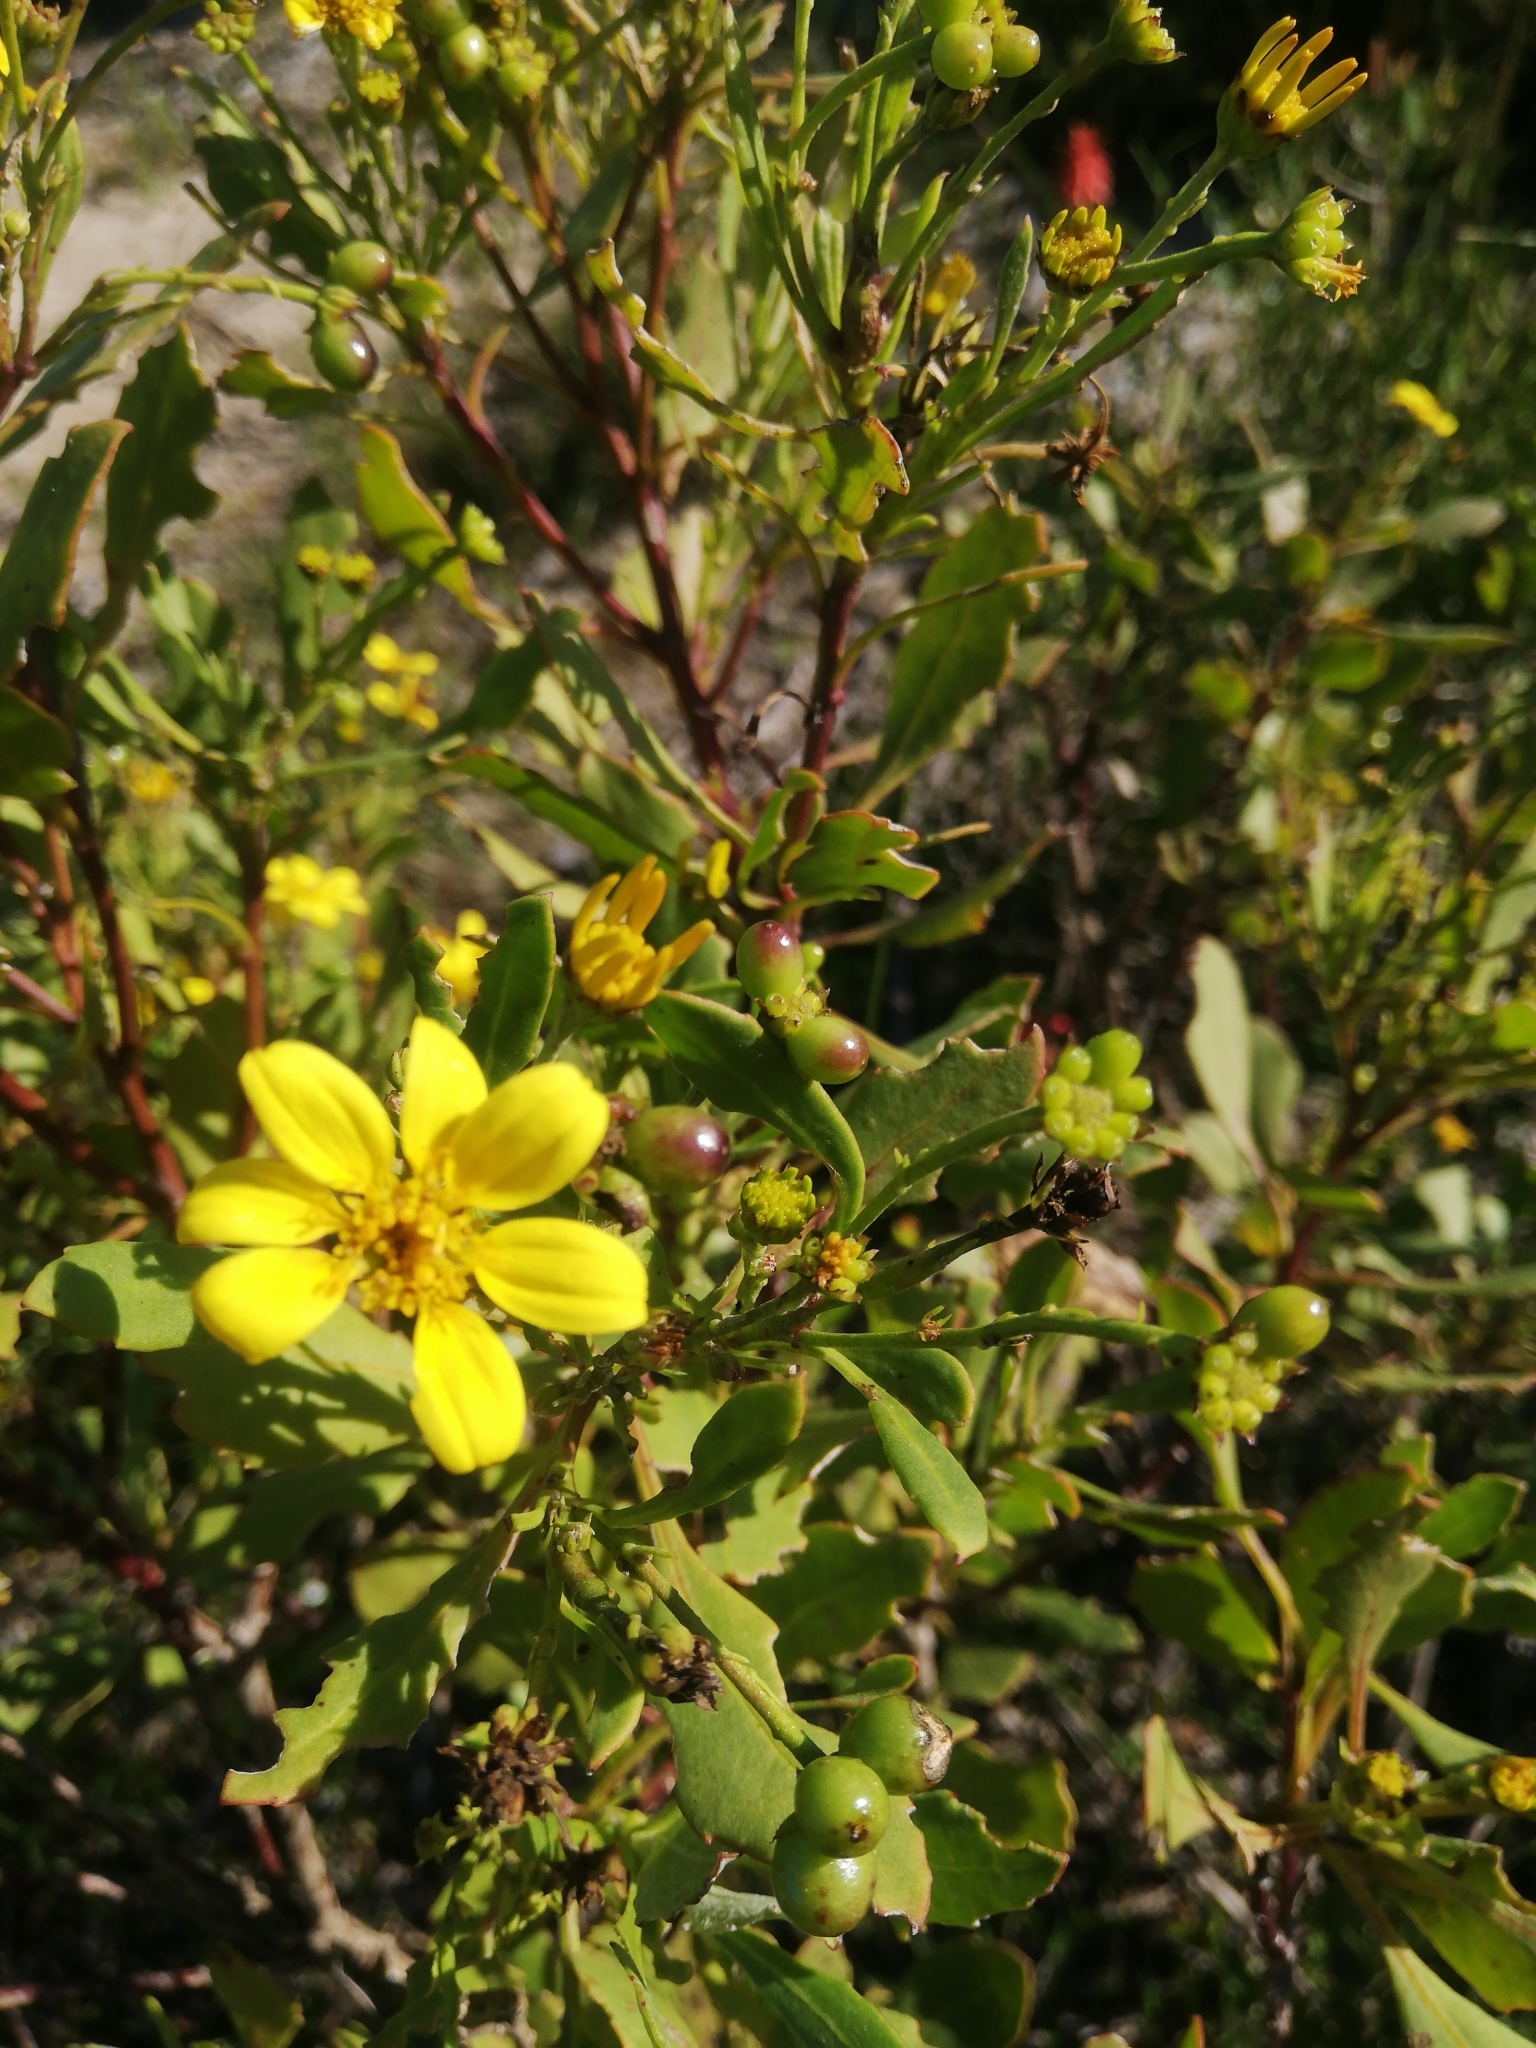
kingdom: Plantae
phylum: Tracheophyta
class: Magnoliopsida
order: Asterales
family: Asteraceae
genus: Osteospermum
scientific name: Osteospermum moniliferum
